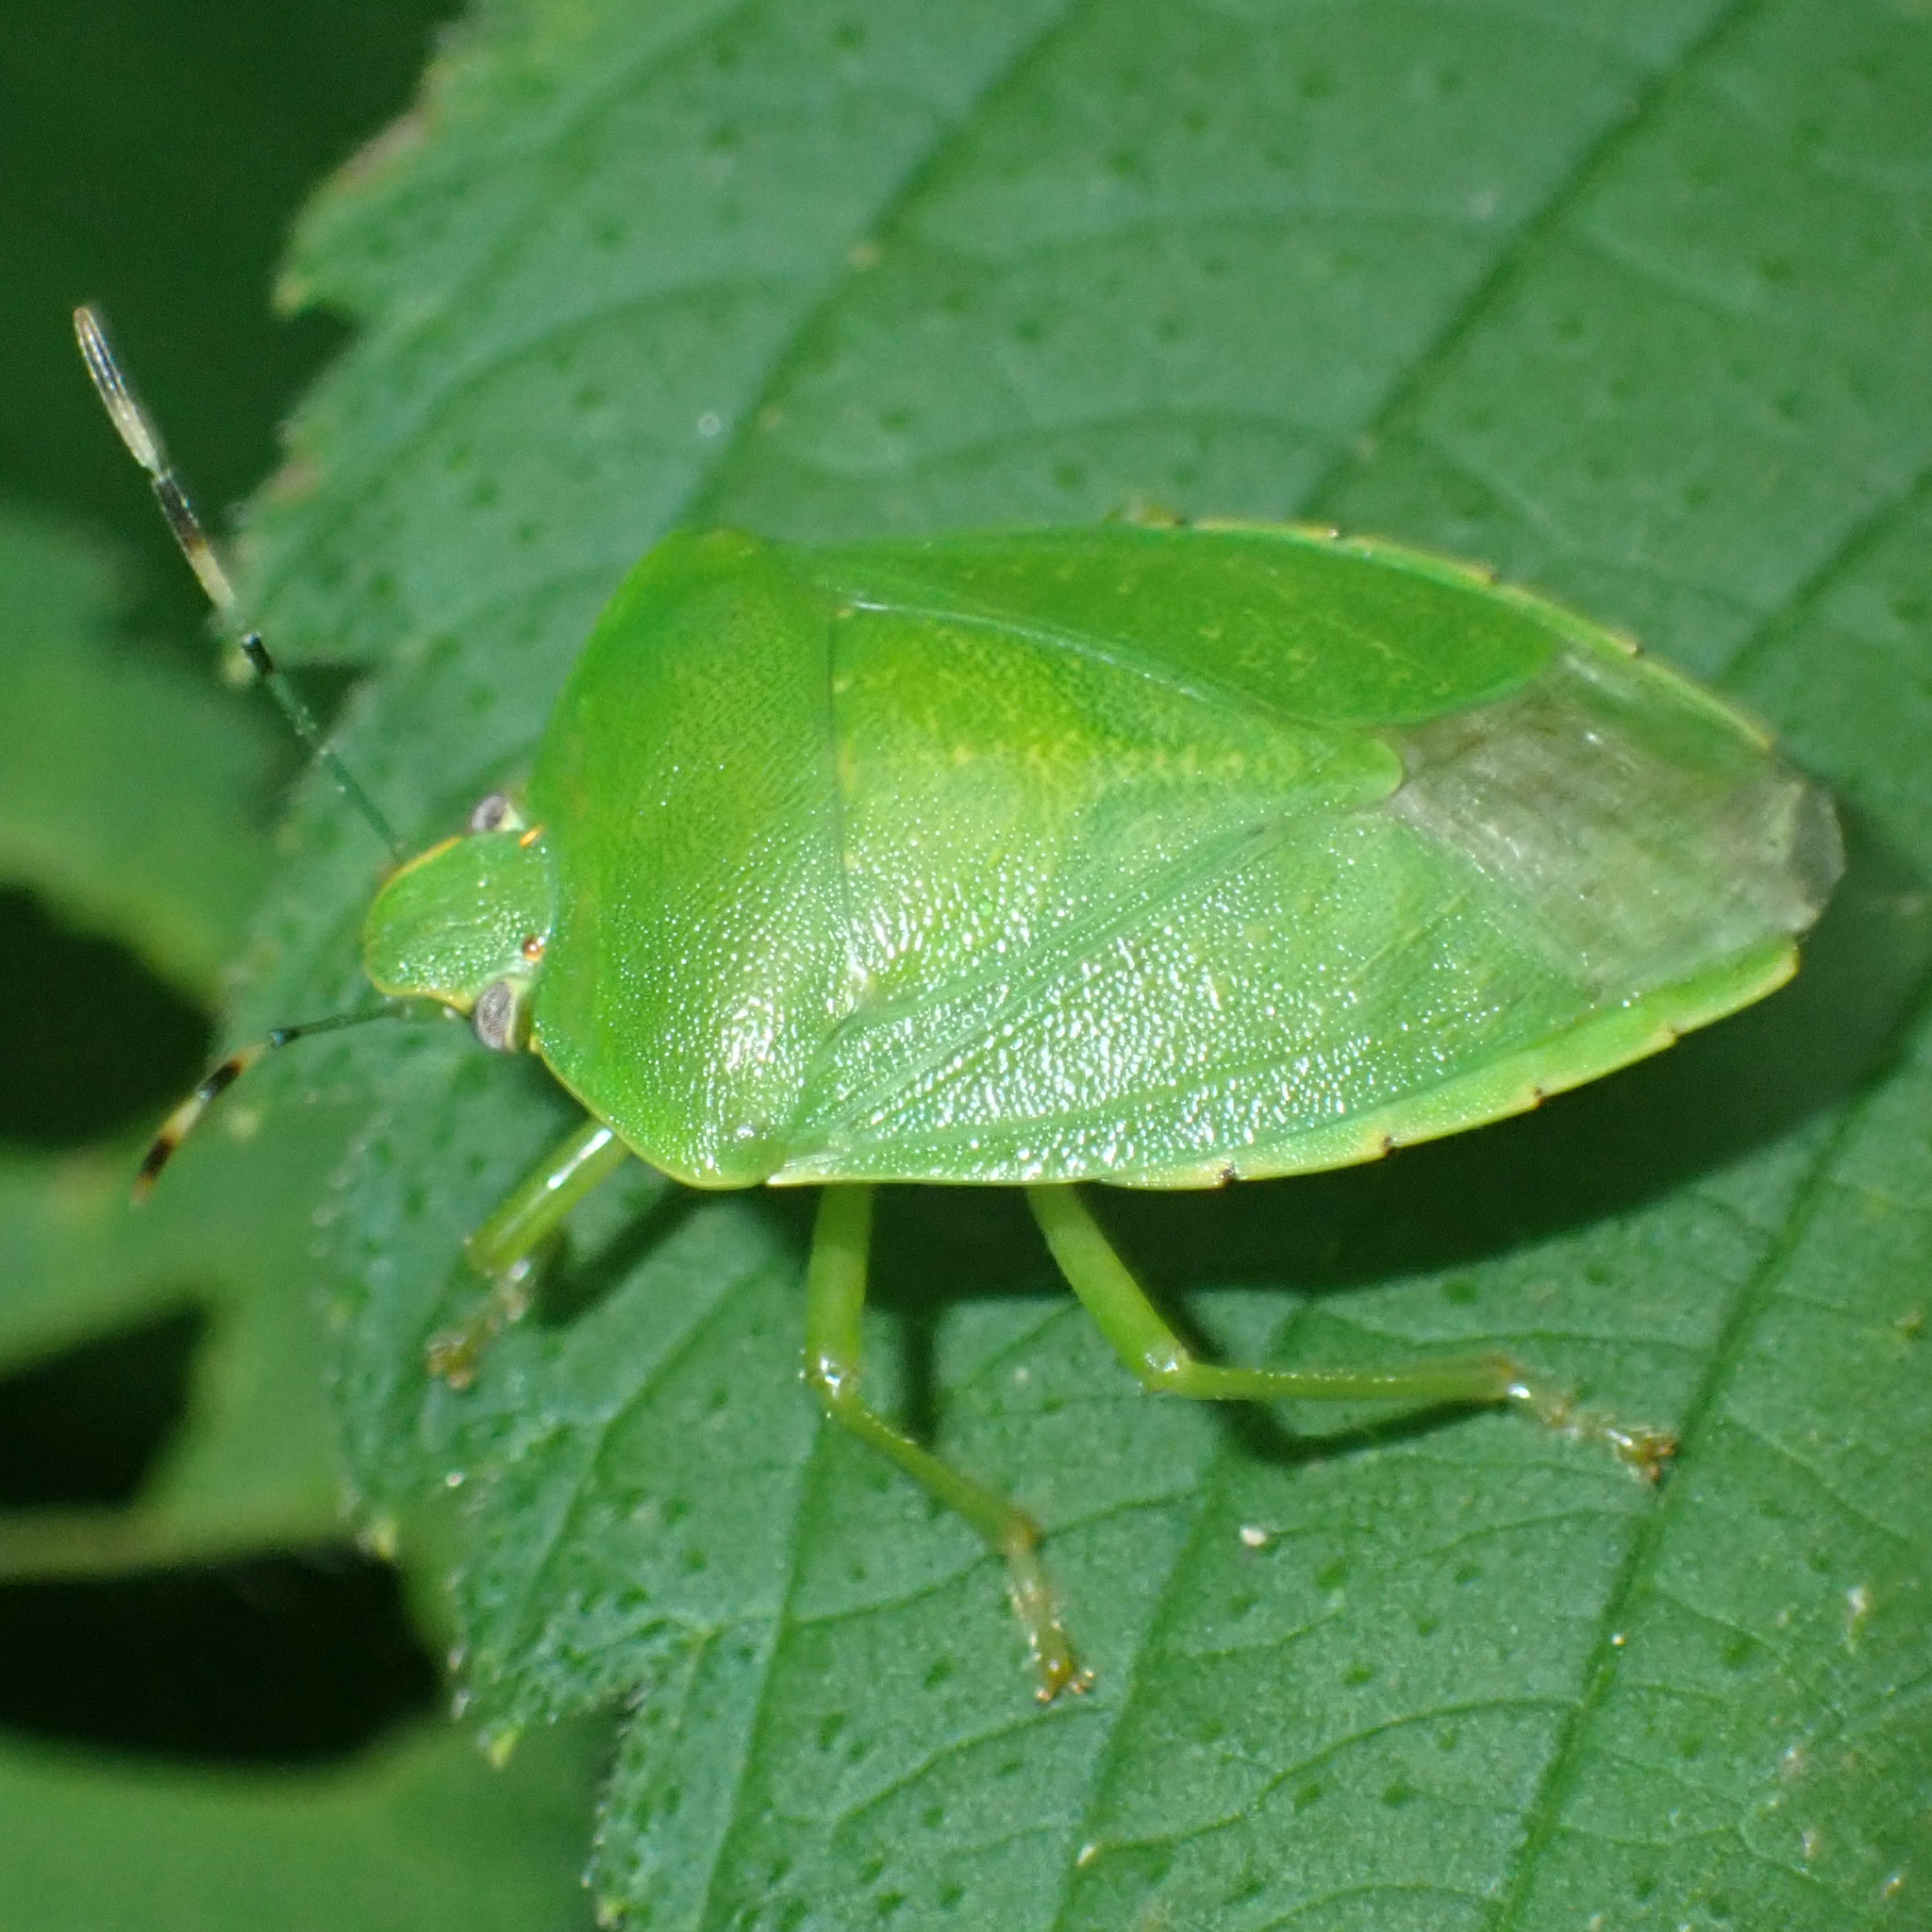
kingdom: Animalia
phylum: Arthropoda
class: Insecta
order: Hemiptera
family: Pentatomidae
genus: Chinavia
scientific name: Chinavia hilaris
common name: Green stink bug
